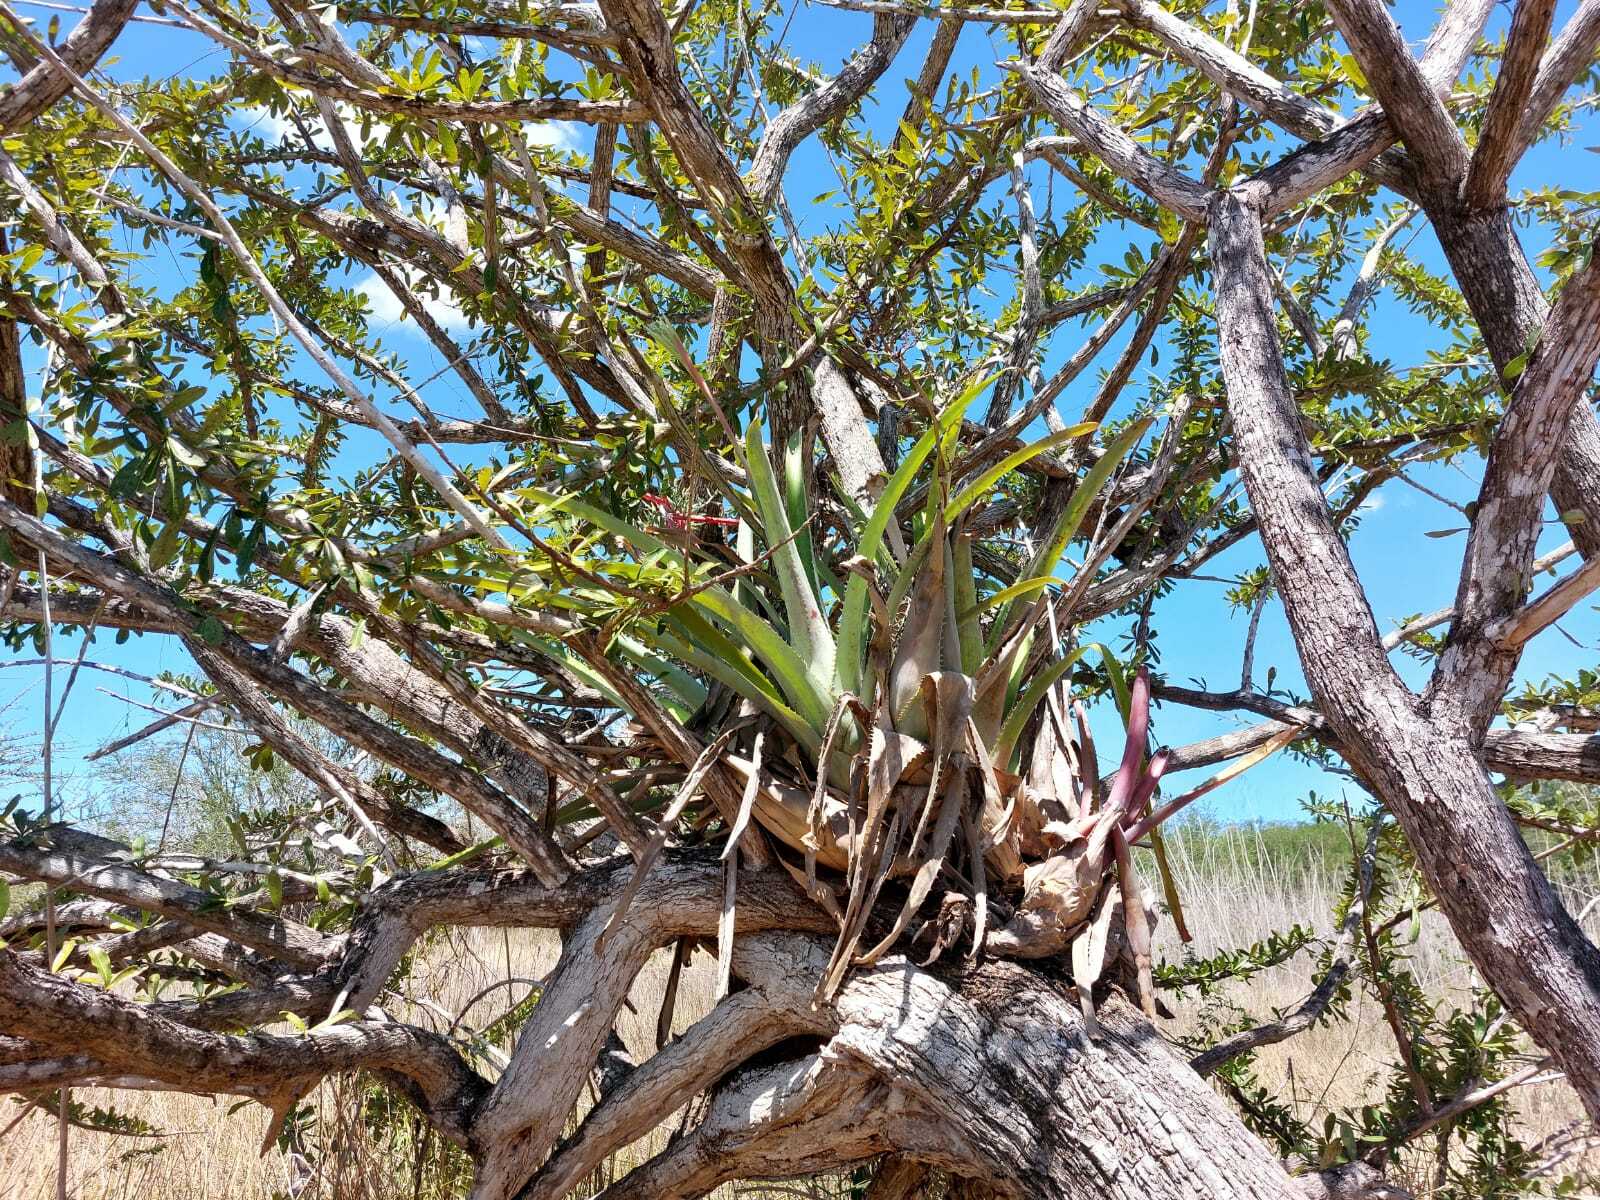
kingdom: Plantae
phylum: Tracheophyta
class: Liliopsida
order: Poales
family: Bromeliaceae
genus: Aechmea
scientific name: Aechmea bracteata
